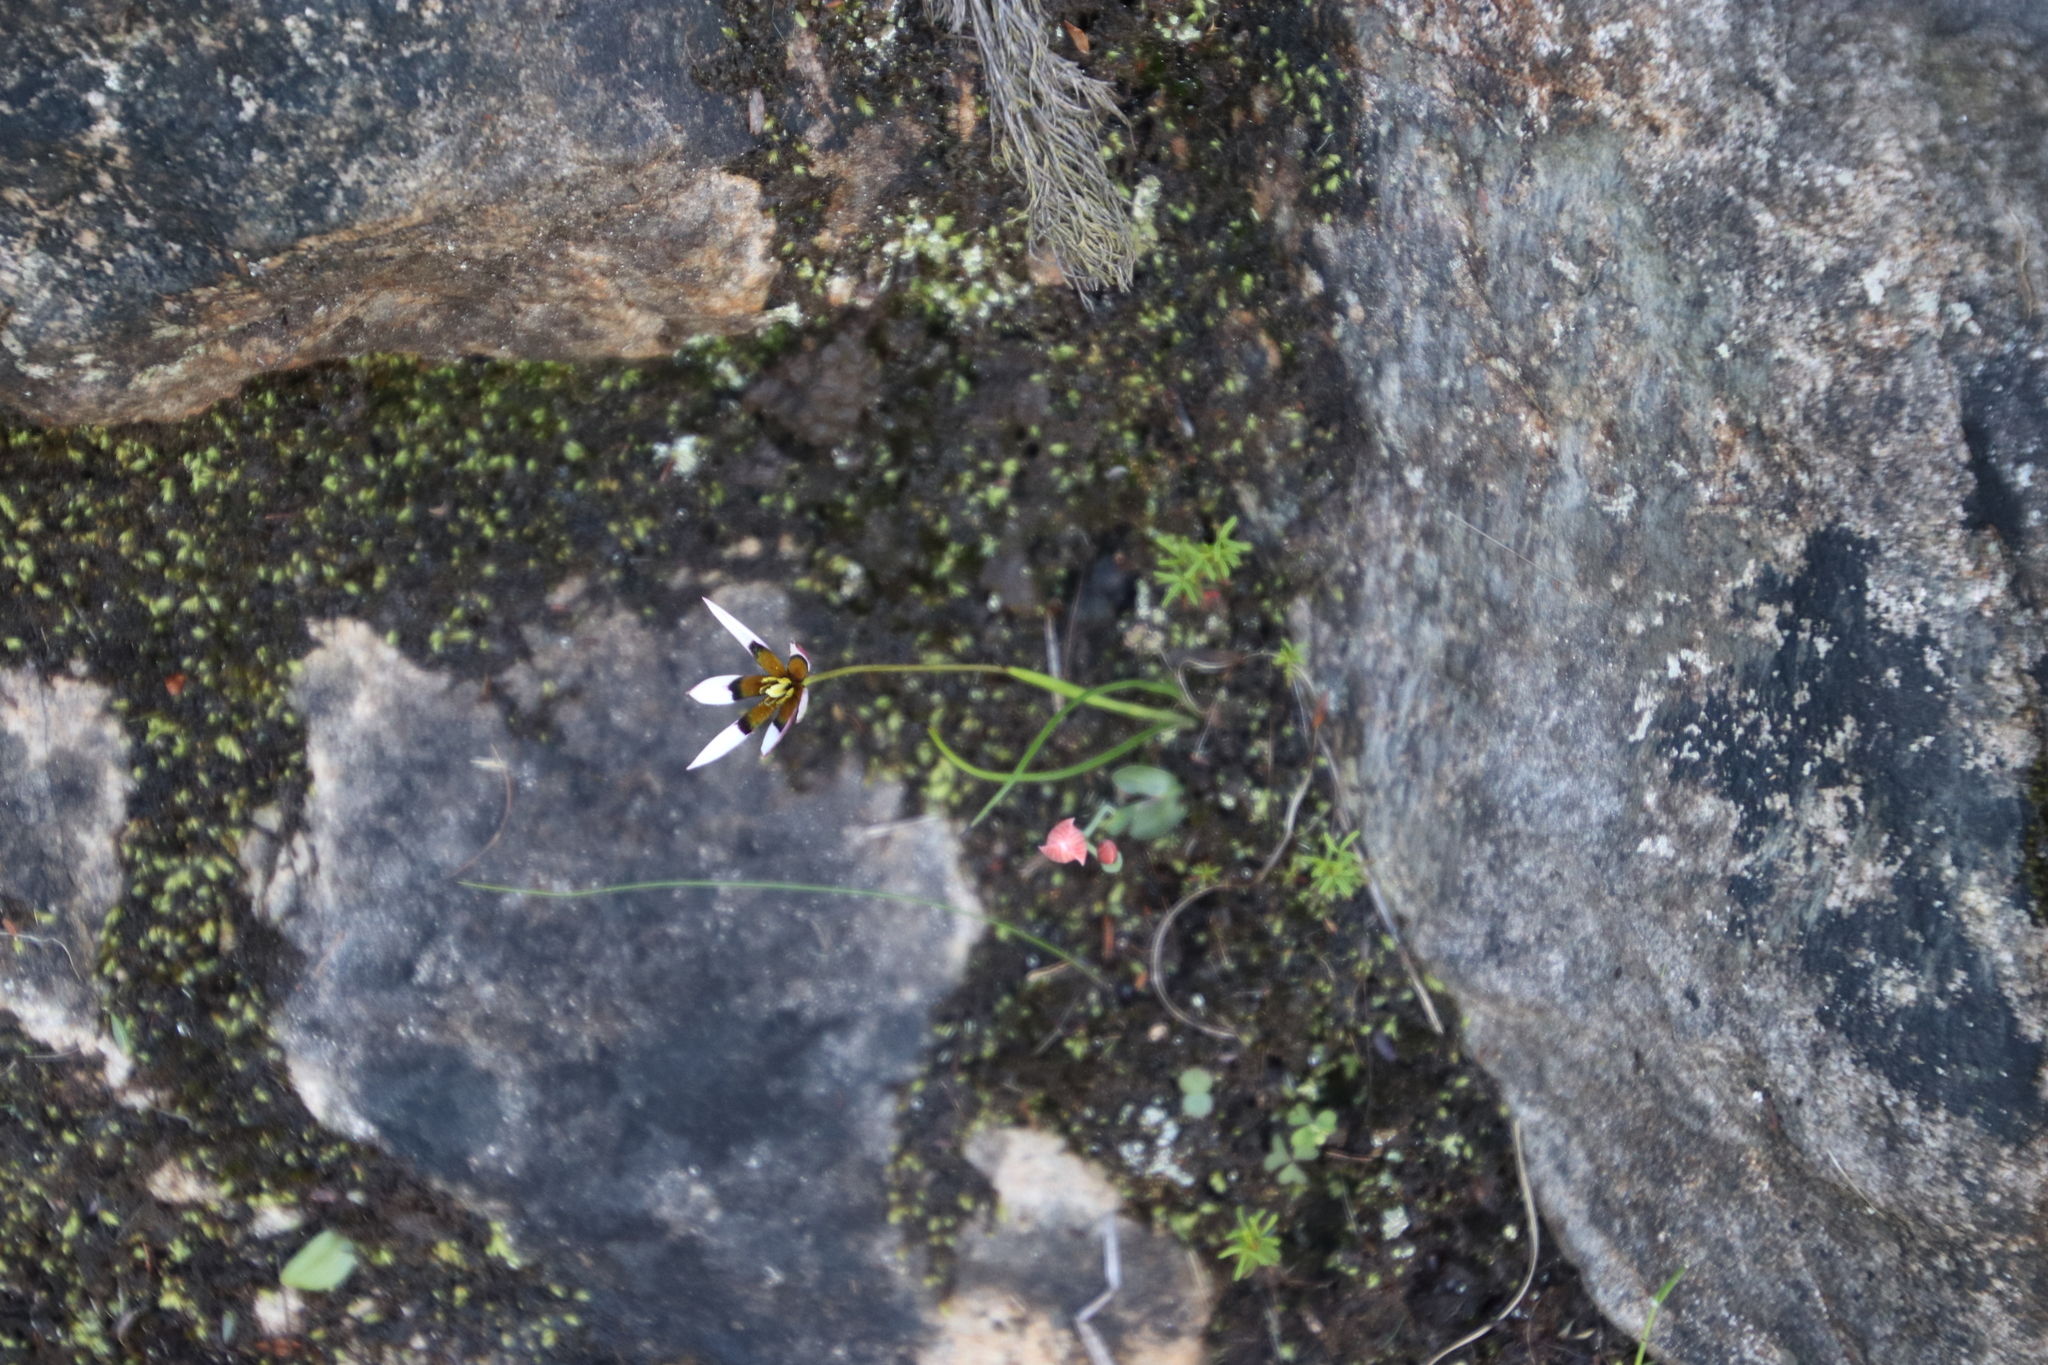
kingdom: Plantae
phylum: Tracheophyta
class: Liliopsida
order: Asparagales
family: Hypoxidaceae
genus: Pauridia
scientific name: Pauridia capensis
